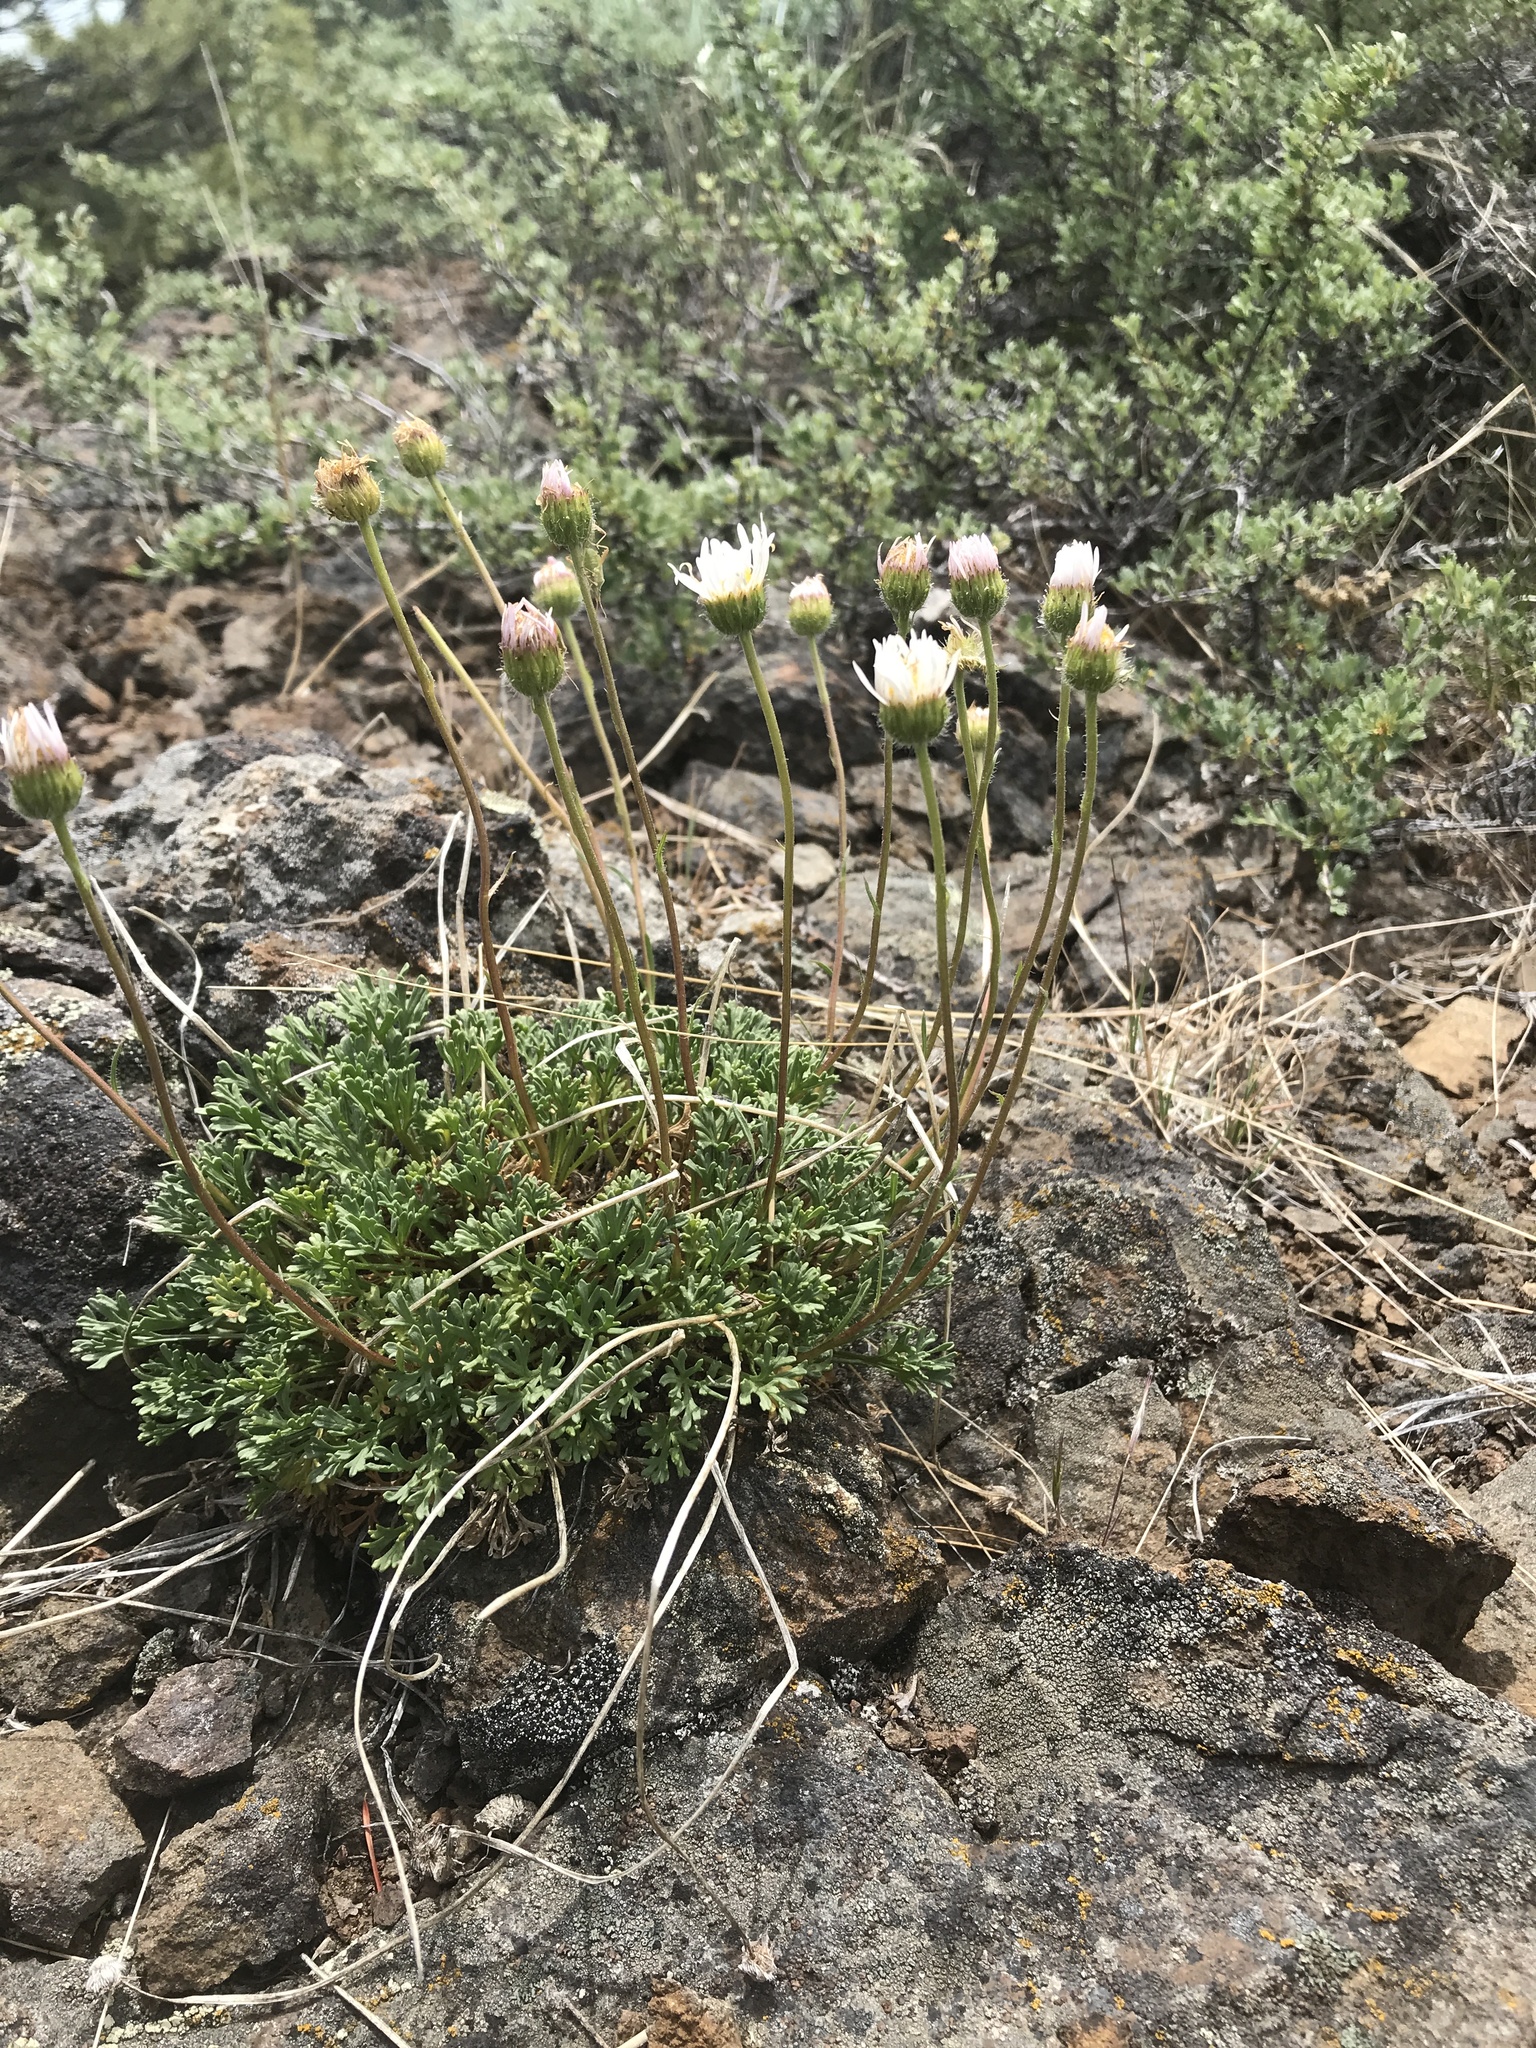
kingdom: Plantae
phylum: Tracheophyta
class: Magnoliopsida
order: Asterales
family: Asteraceae
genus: Erigeron
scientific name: Erigeron compositus
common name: Dwarf mountain fleabane
